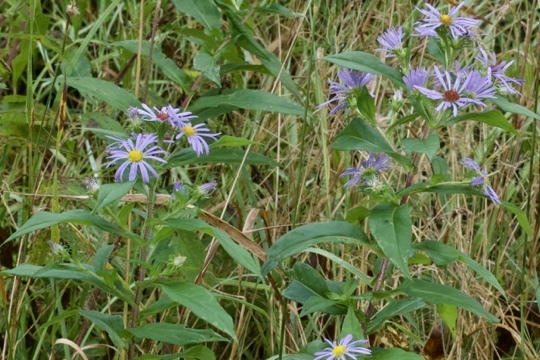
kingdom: Plantae
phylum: Tracheophyta
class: Magnoliopsida
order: Asterales
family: Asteraceae
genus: Symphyotrichum
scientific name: Symphyotrichum puniceum
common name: Bog aster
